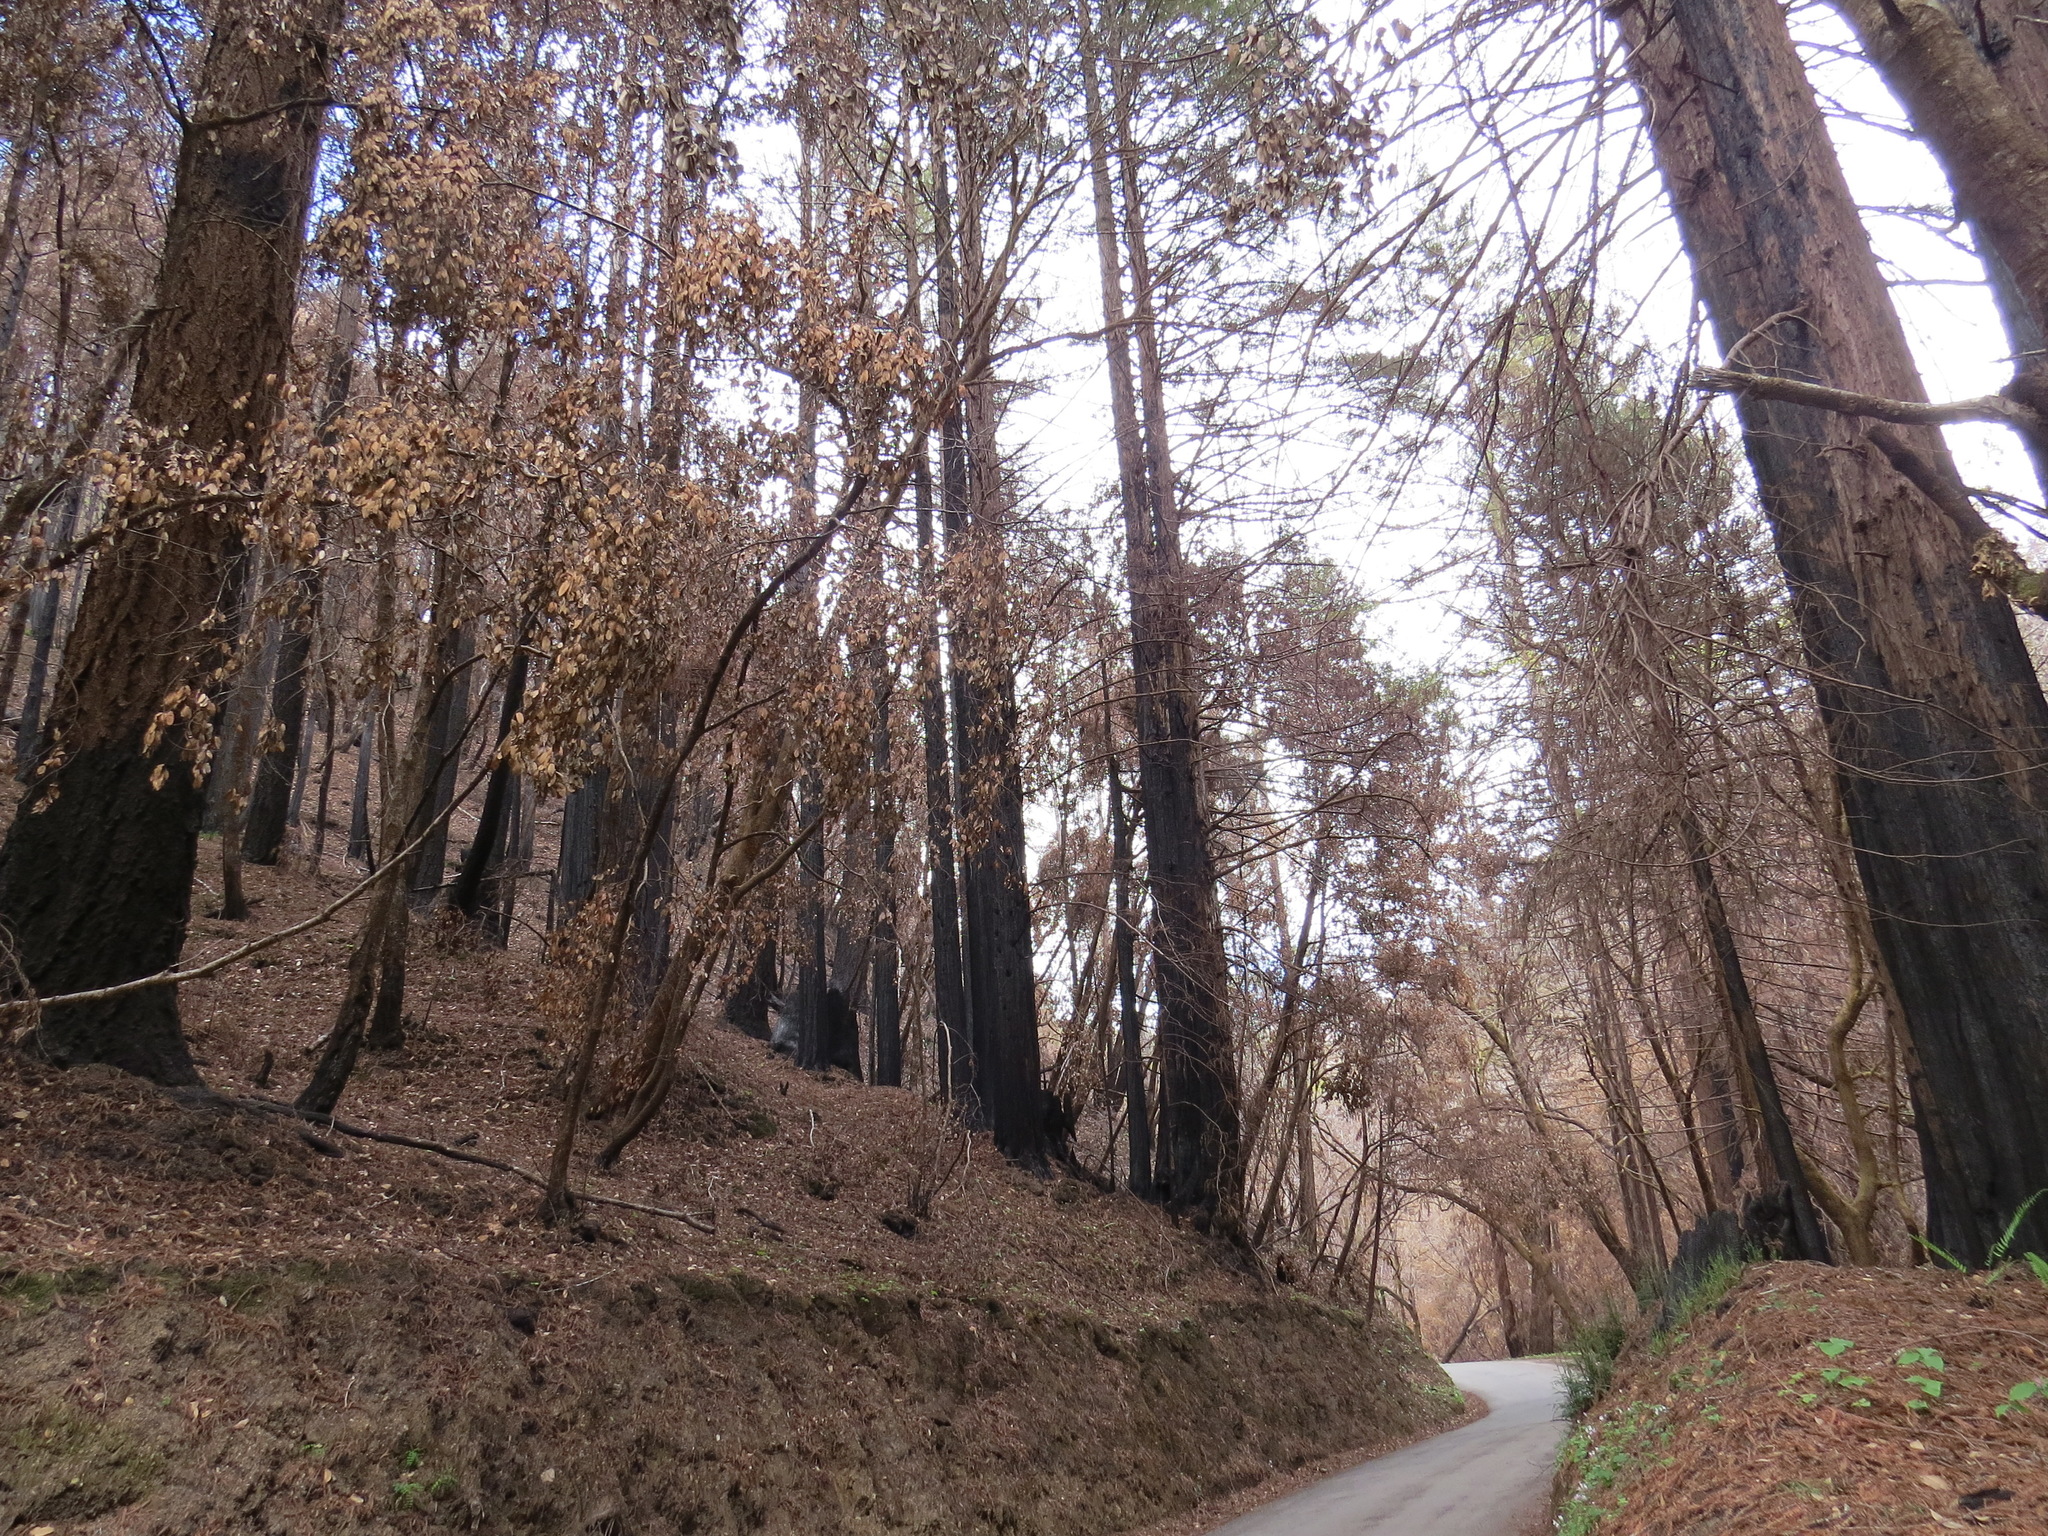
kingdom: Plantae
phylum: Tracheophyta
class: Pinopsida
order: Pinales
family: Cupressaceae
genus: Sequoia
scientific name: Sequoia sempervirens
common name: Coast redwood
